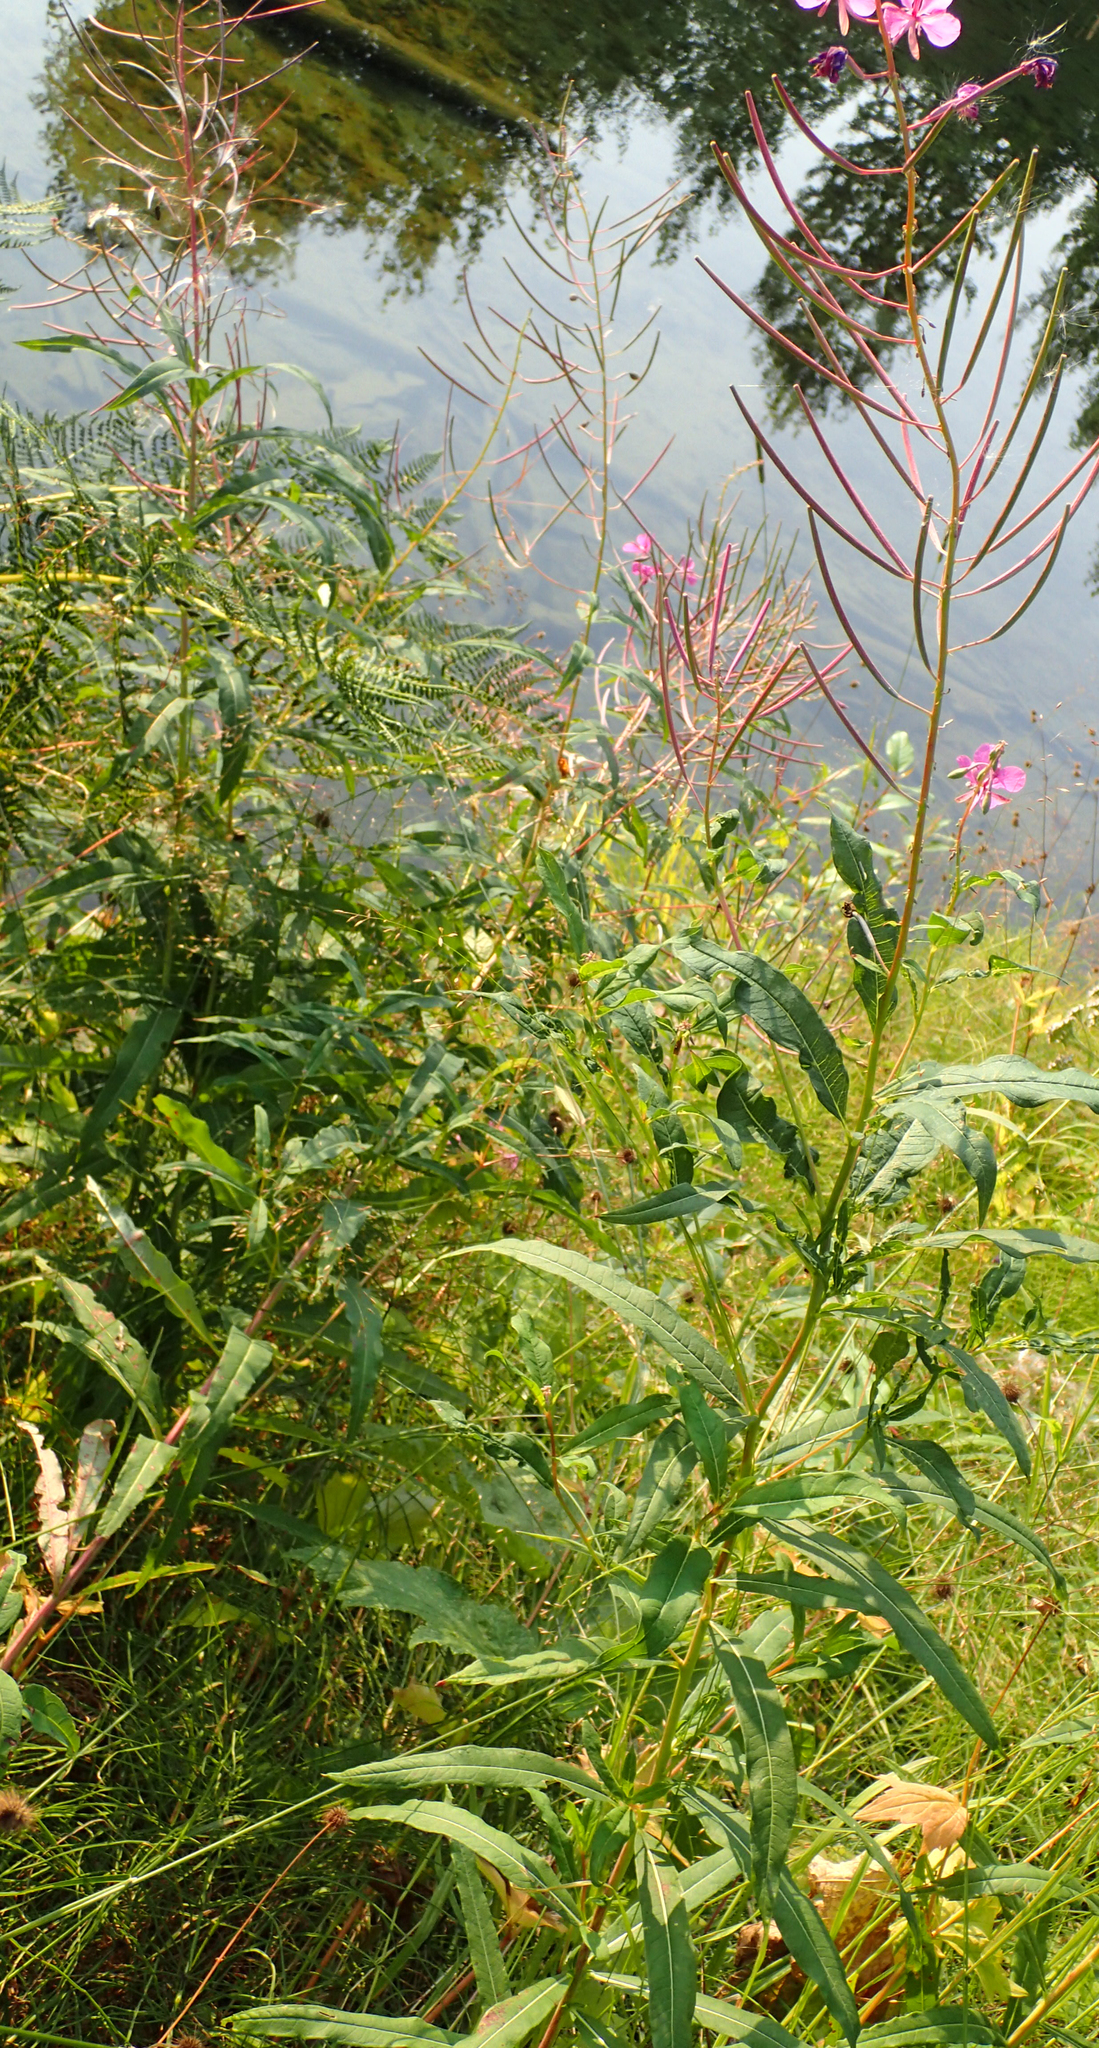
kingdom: Plantae
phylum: Tracheophyta
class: Magnoliopsida
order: Myrtales
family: Onagraceae
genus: Chamaenerion
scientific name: Chamaenerion angustifolium
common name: Fireweed
